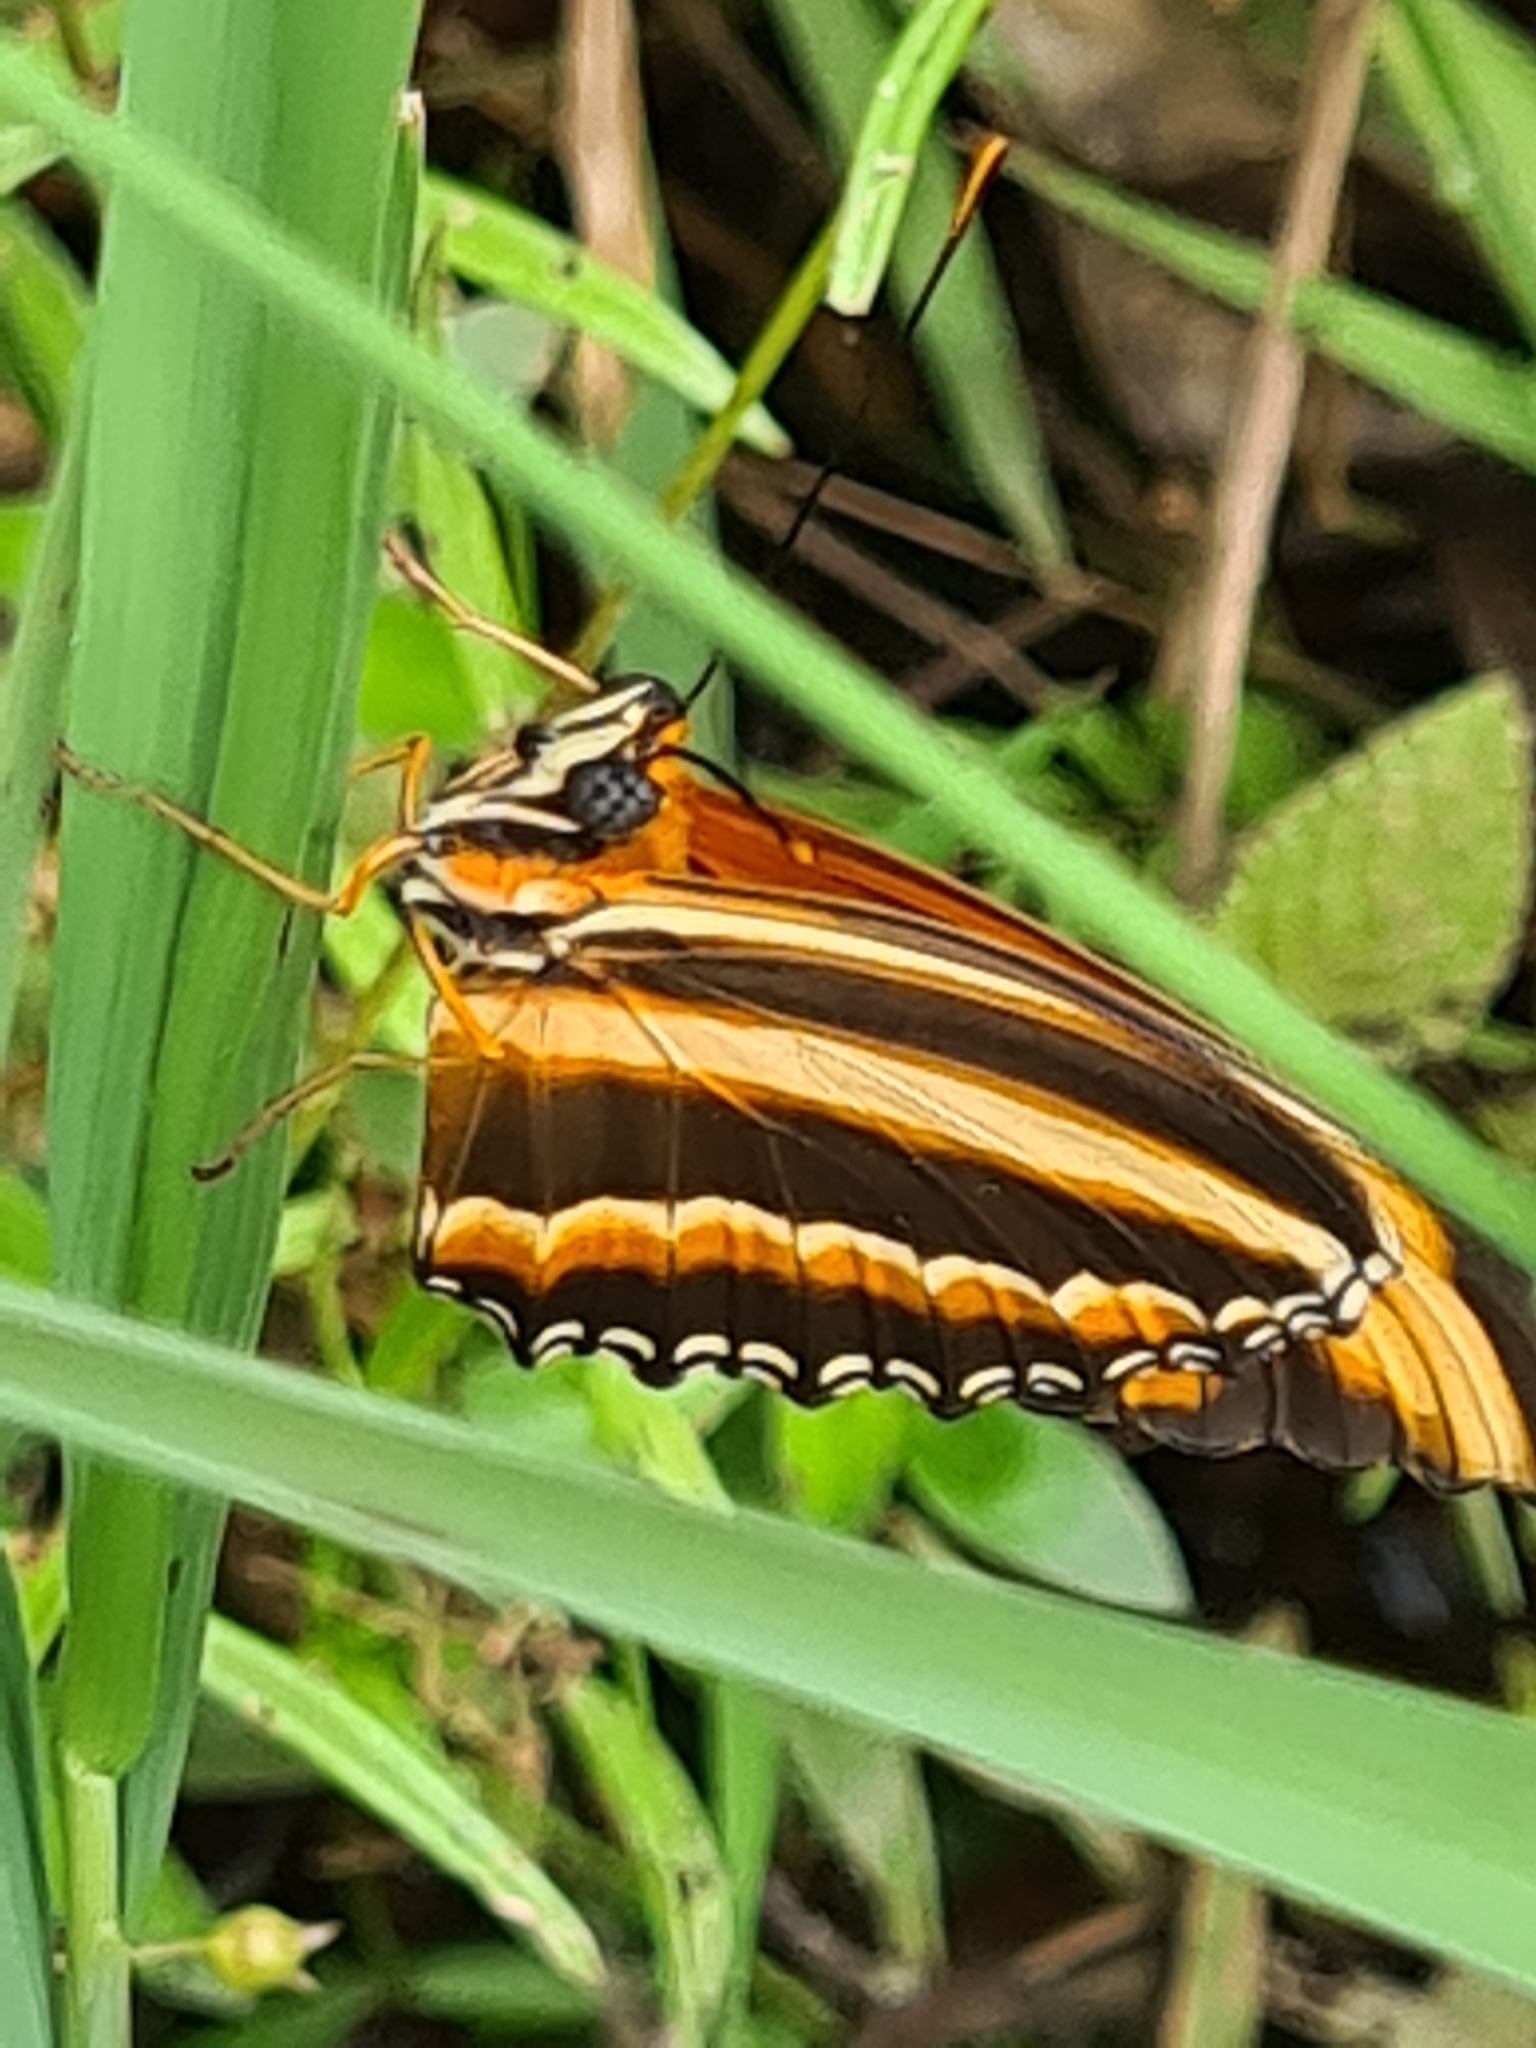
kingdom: Animalia
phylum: Arthropoda
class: Insecta
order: Lepidoptera
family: Nymphalidae
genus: Dryadula
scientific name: Dryadula phaetusa
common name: Banded orange heliconian
